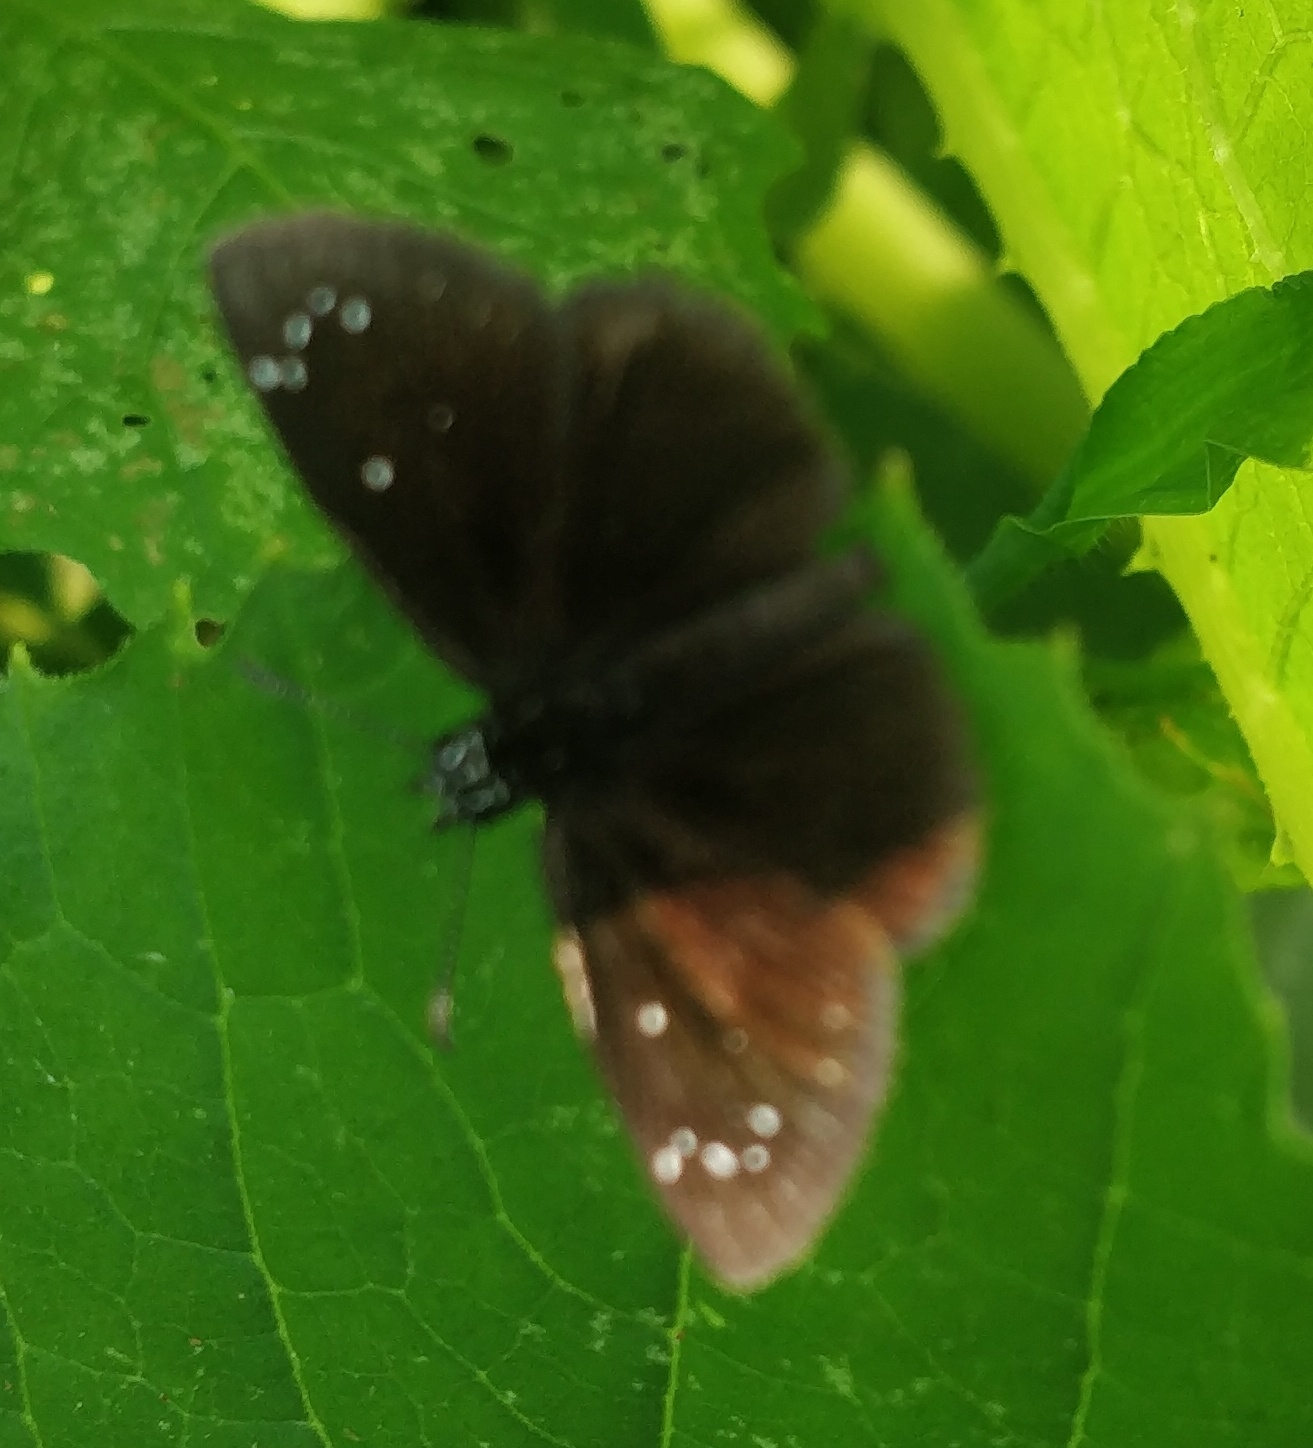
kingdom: Animalia
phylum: Arthropoda
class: Insecta
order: Lepidoptera
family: Hesperiidae
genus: Pholisora
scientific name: Pholisora catullus
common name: Common sootywing
